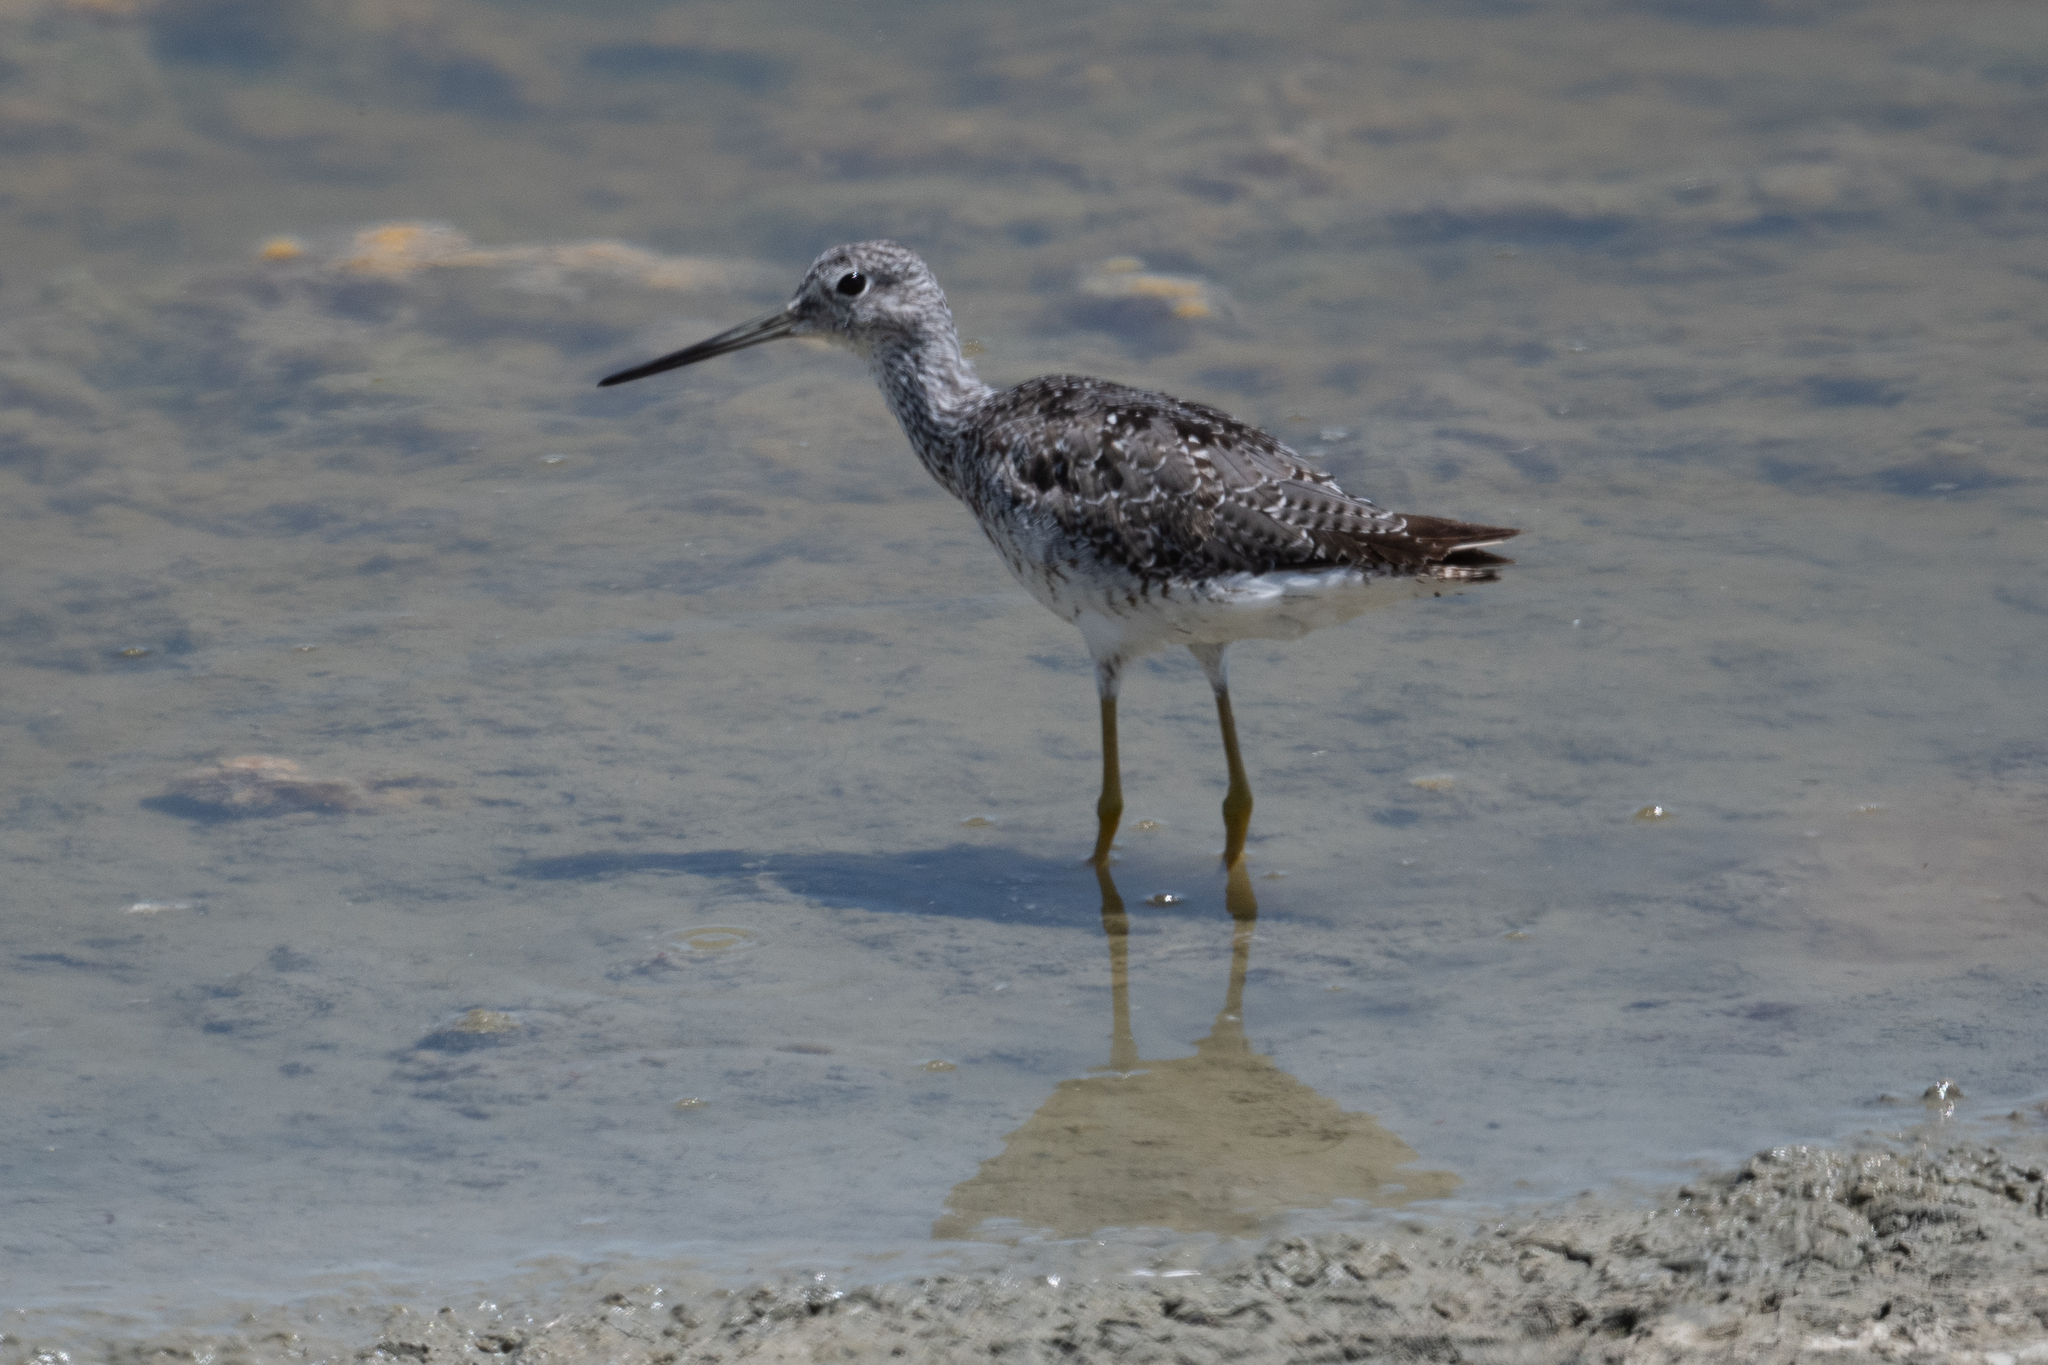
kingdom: Animalia
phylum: Chordata
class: Aves
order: Charadriiformes
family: Scolopacidae
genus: Tringa
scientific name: Tringa melanoleuca
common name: Greater yellowlegs
